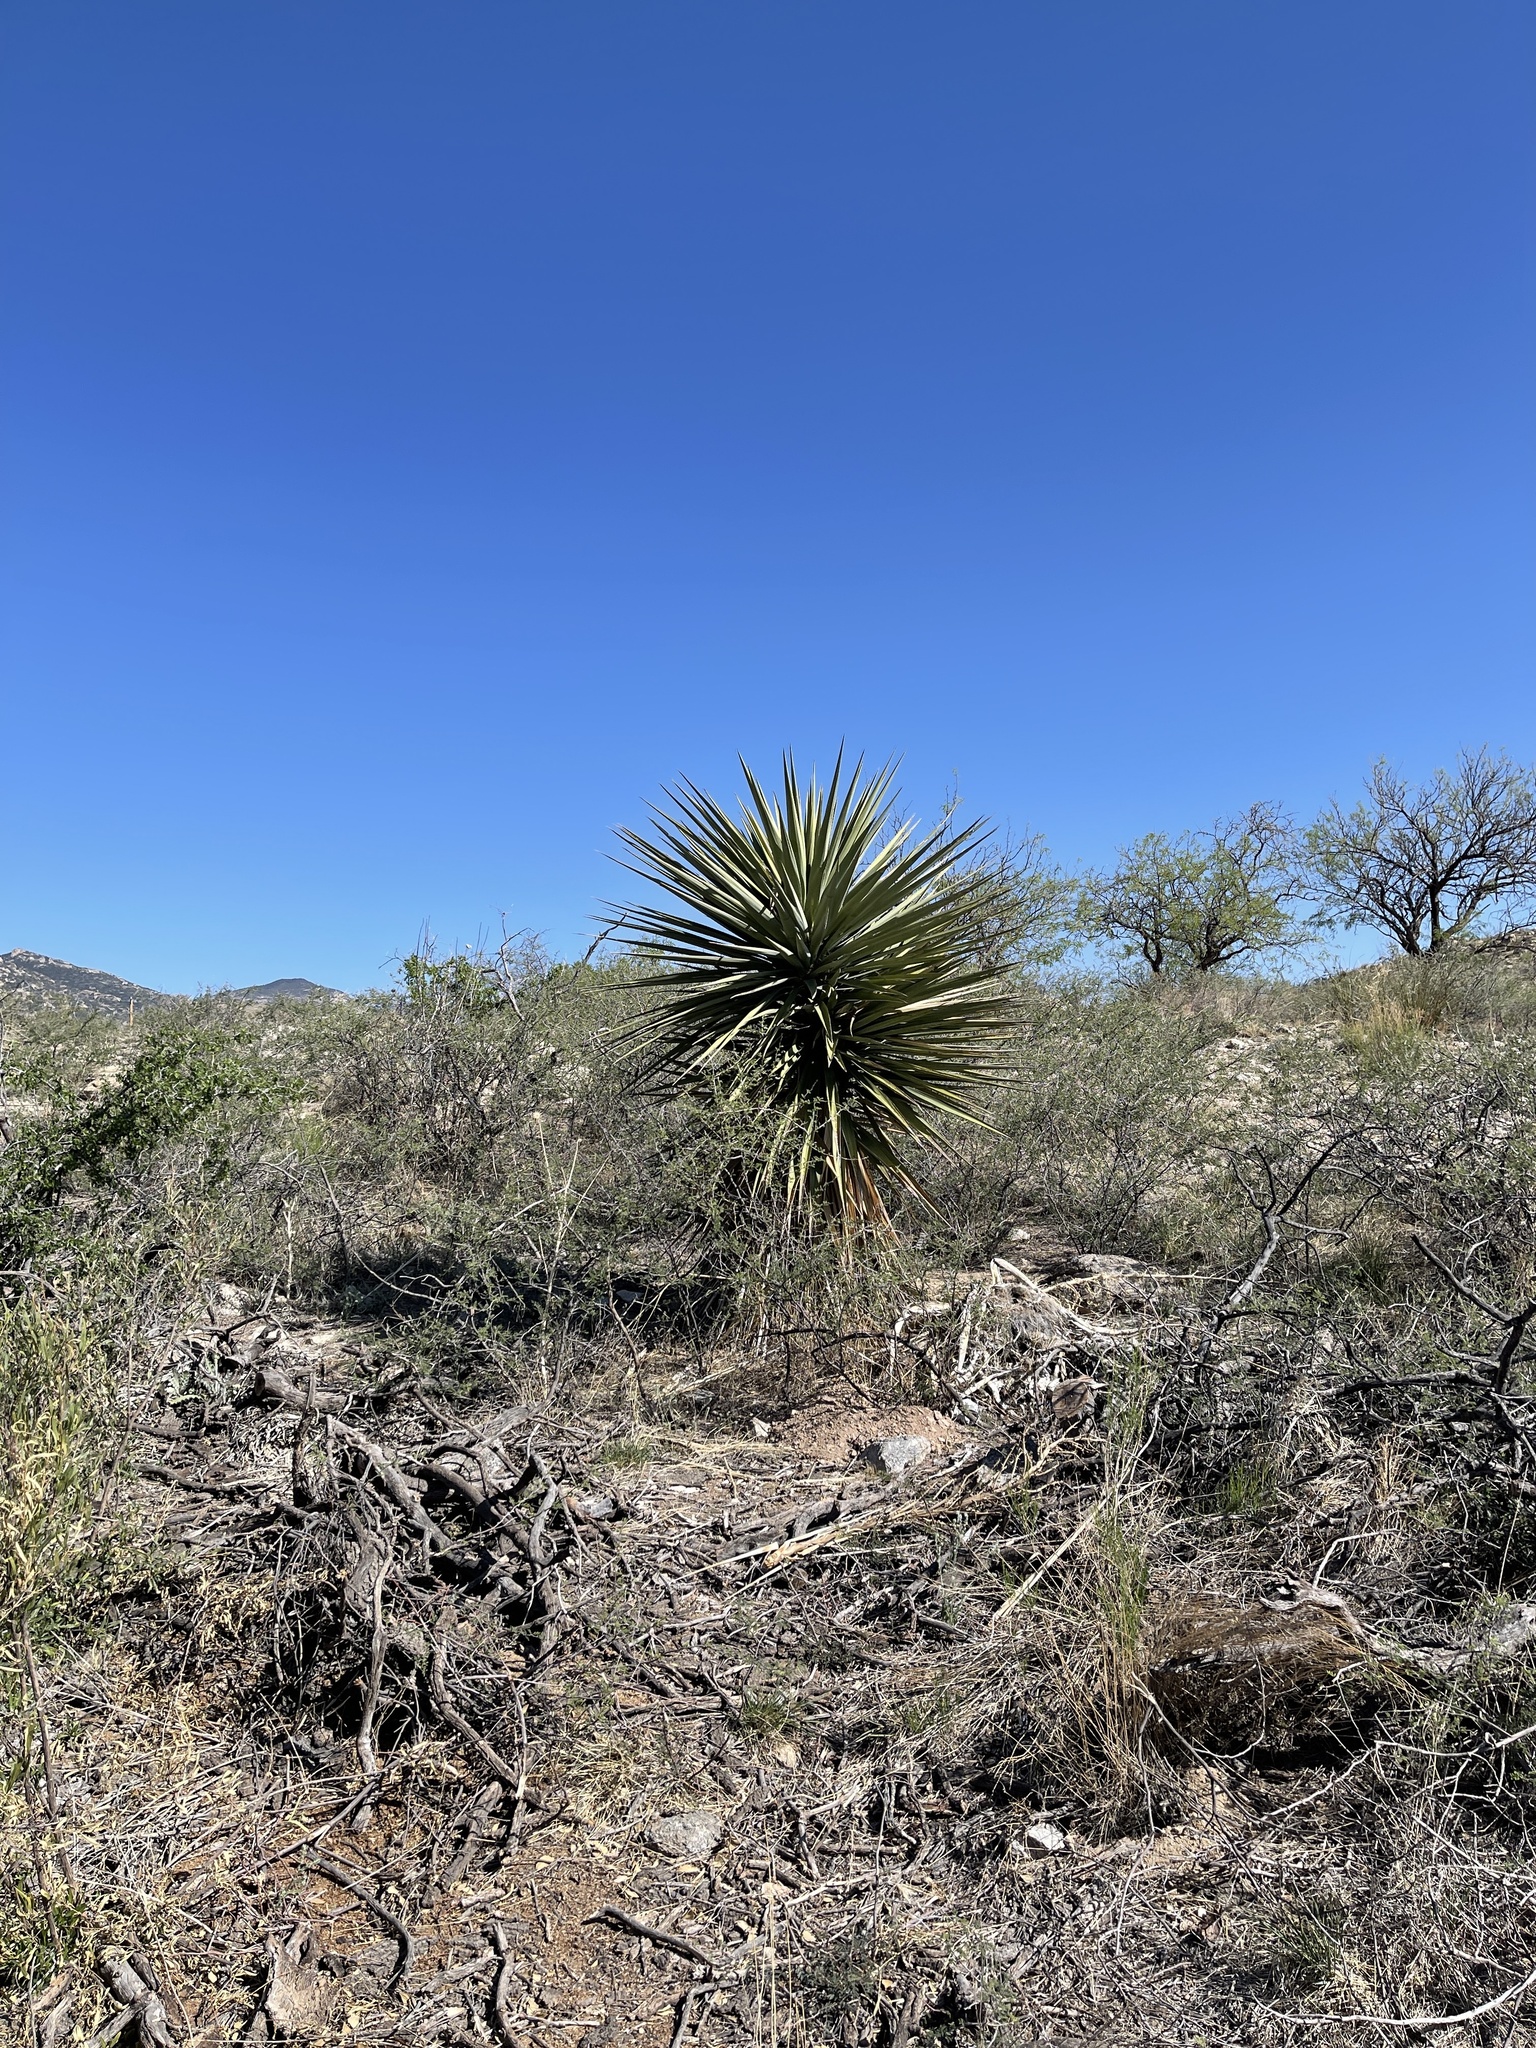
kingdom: Plantae
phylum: Tracheophyta
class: Liliopsida
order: Asparagales
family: Asparagaceae
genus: Yucca
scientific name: Yucca madrensis
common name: Hoary yucca
